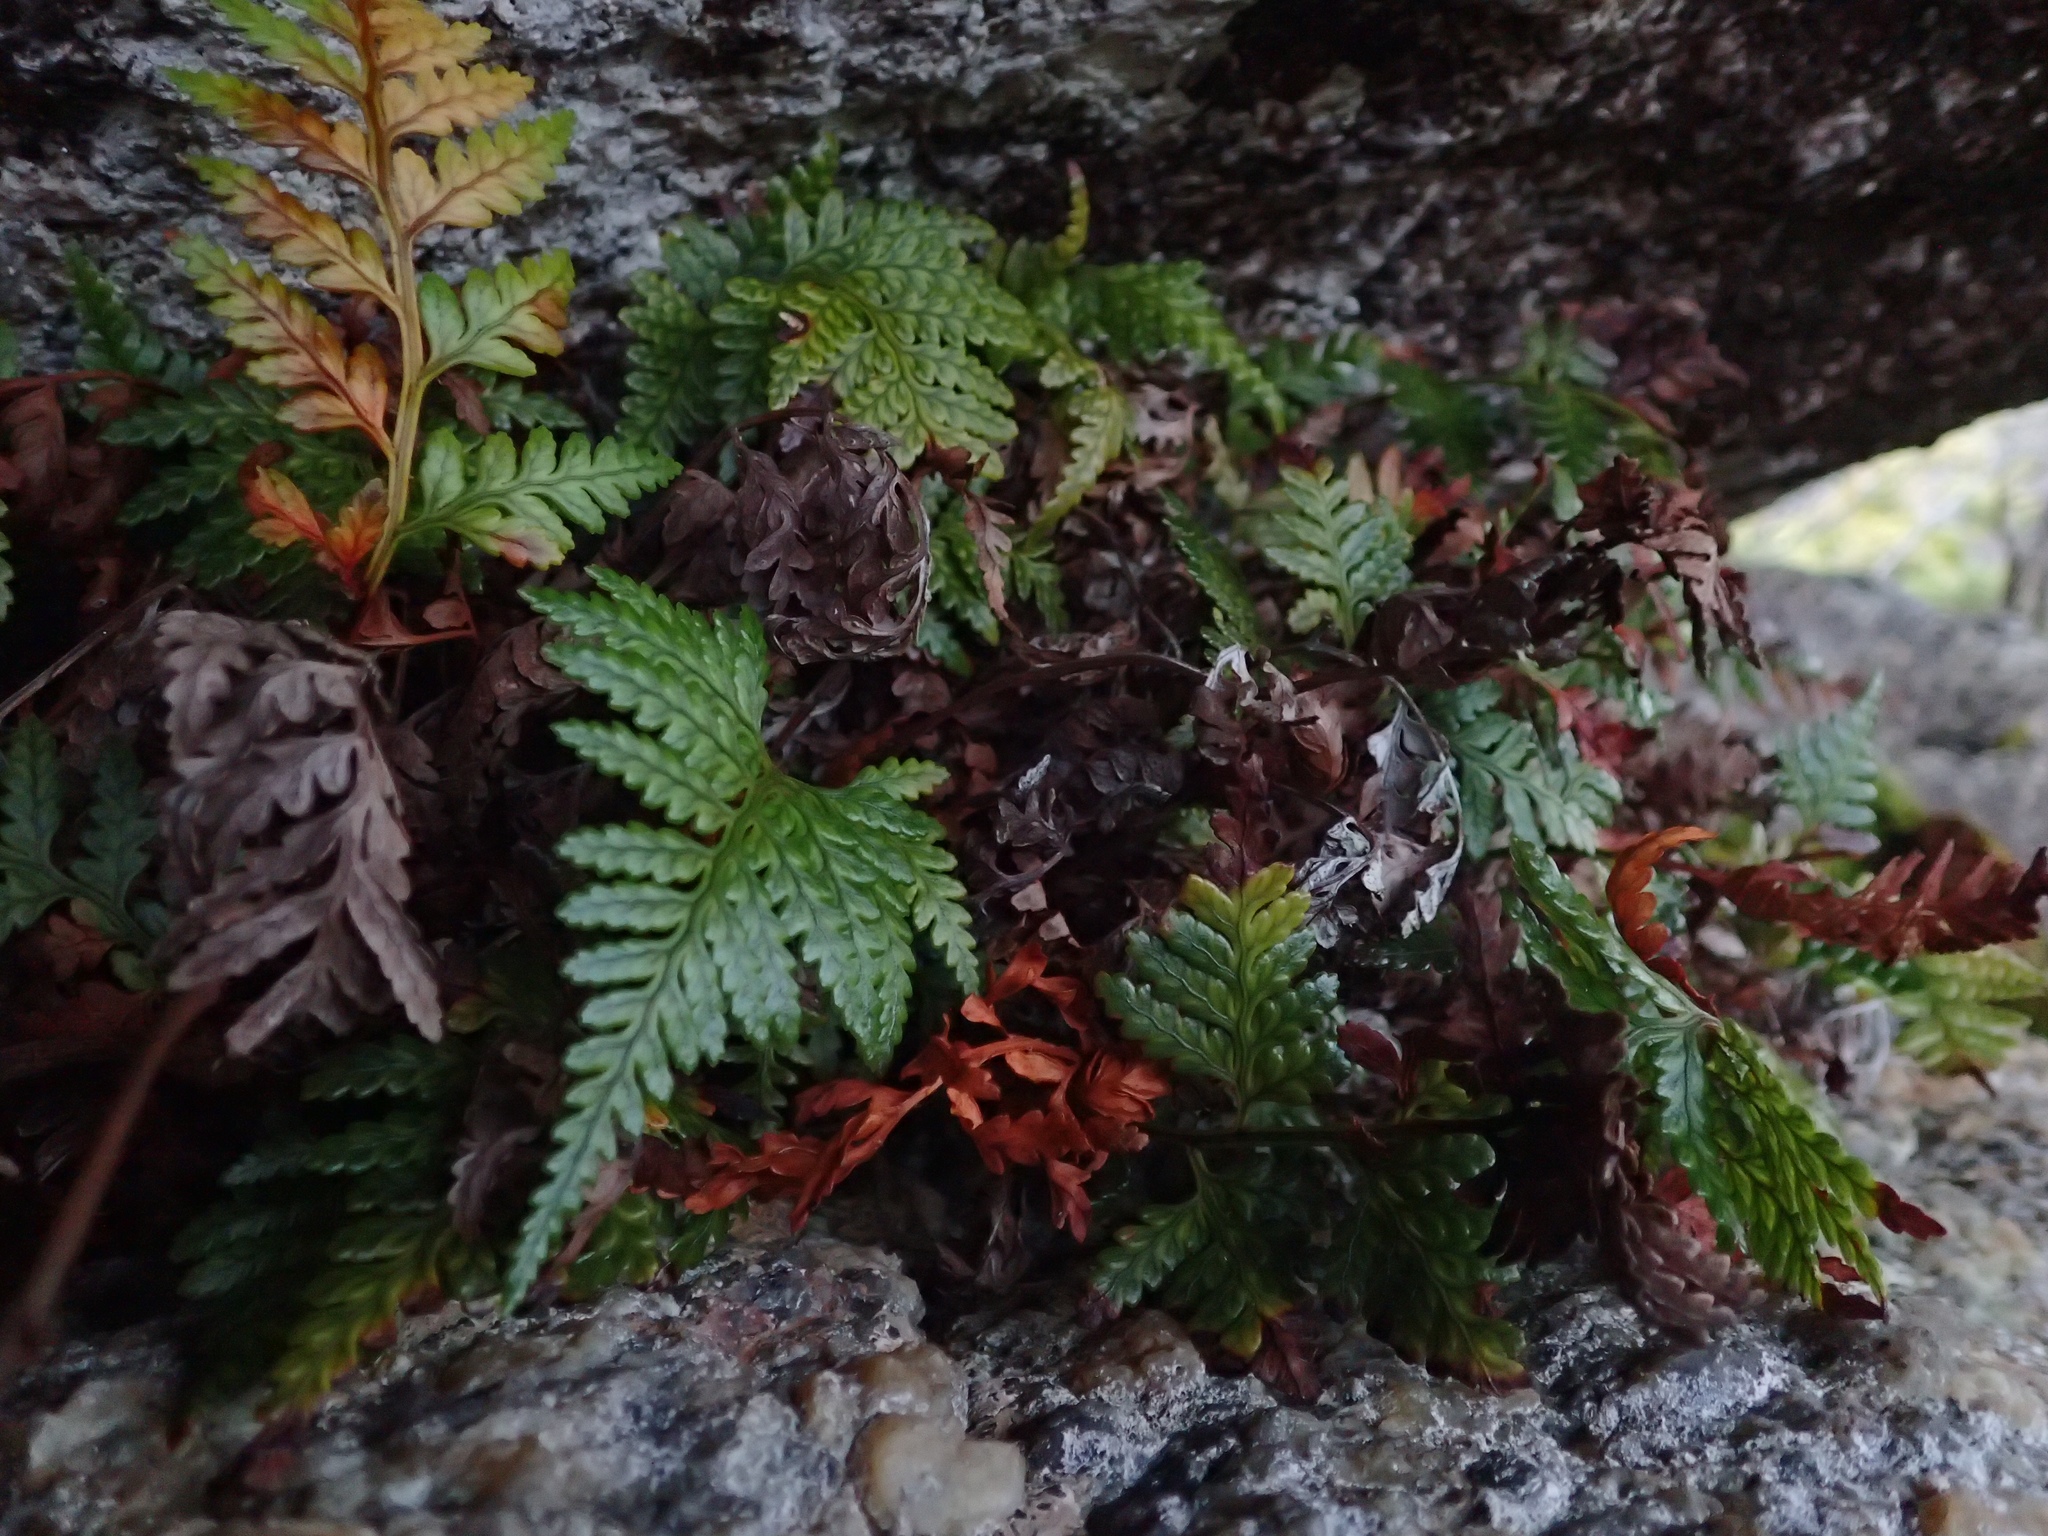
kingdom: Plantae
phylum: Tracheophyta
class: Polypodiopsida
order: Polypodiales
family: Dryopteridaceae
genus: Rumohra
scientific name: Rumohra adiantiformis
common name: Leather fern
